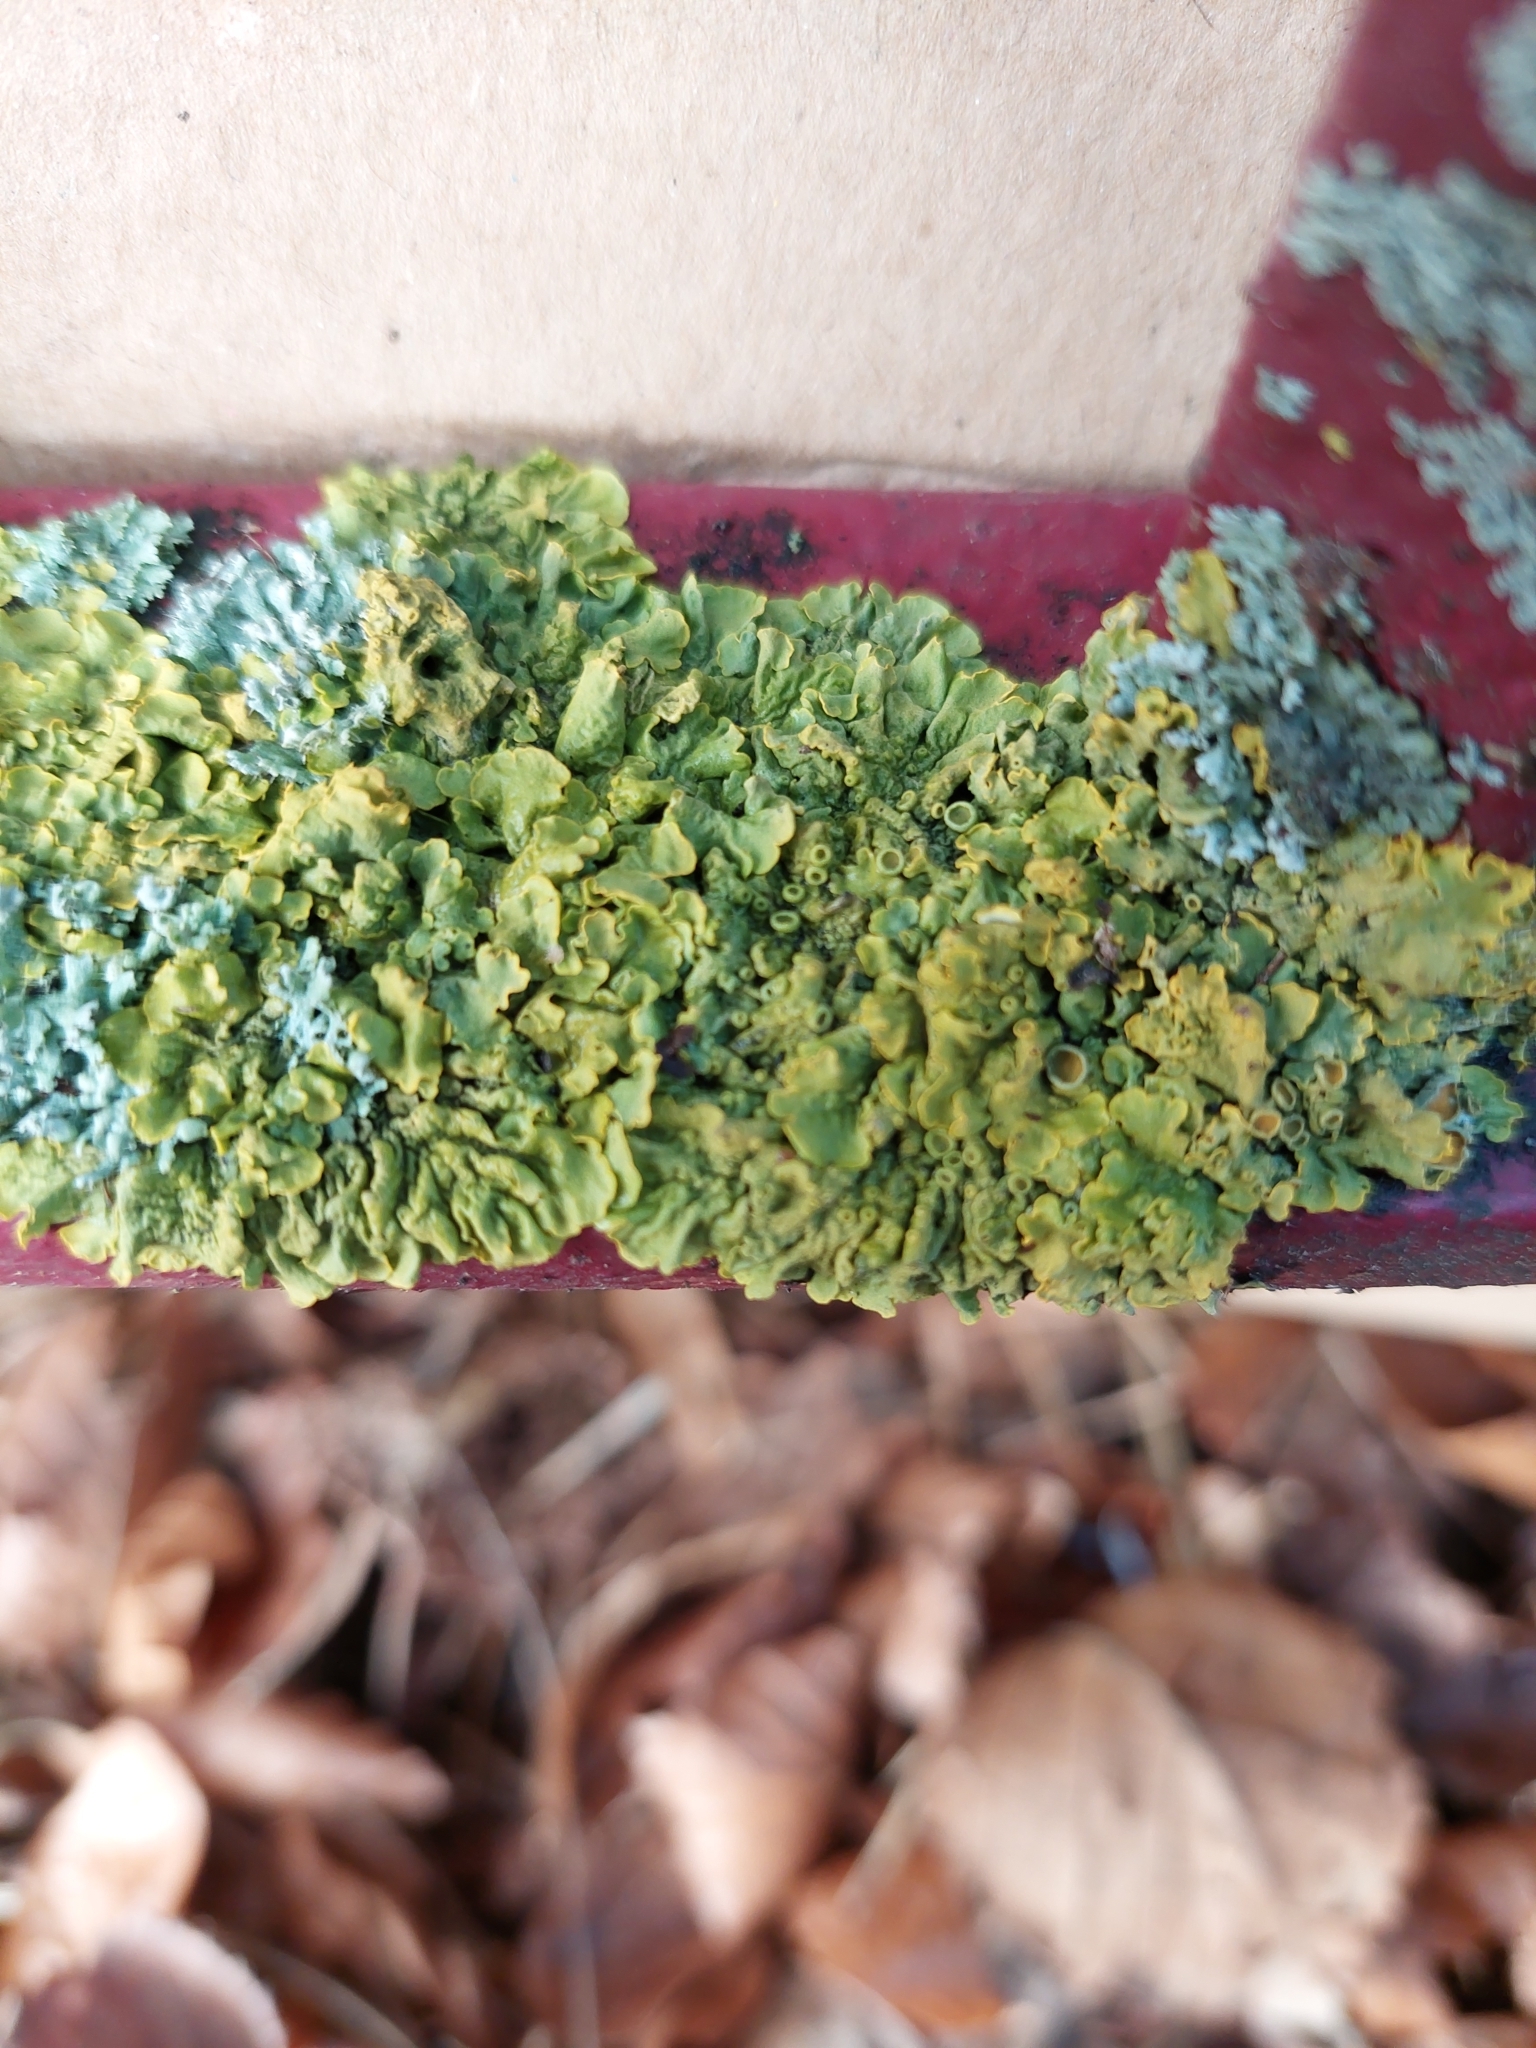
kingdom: Fungi
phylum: Ascomycota
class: Lecanoromycetes
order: Teloschistales
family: Teloschistaceae
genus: Xanthoria
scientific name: Xanthoria parietina
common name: Common orange lichen
